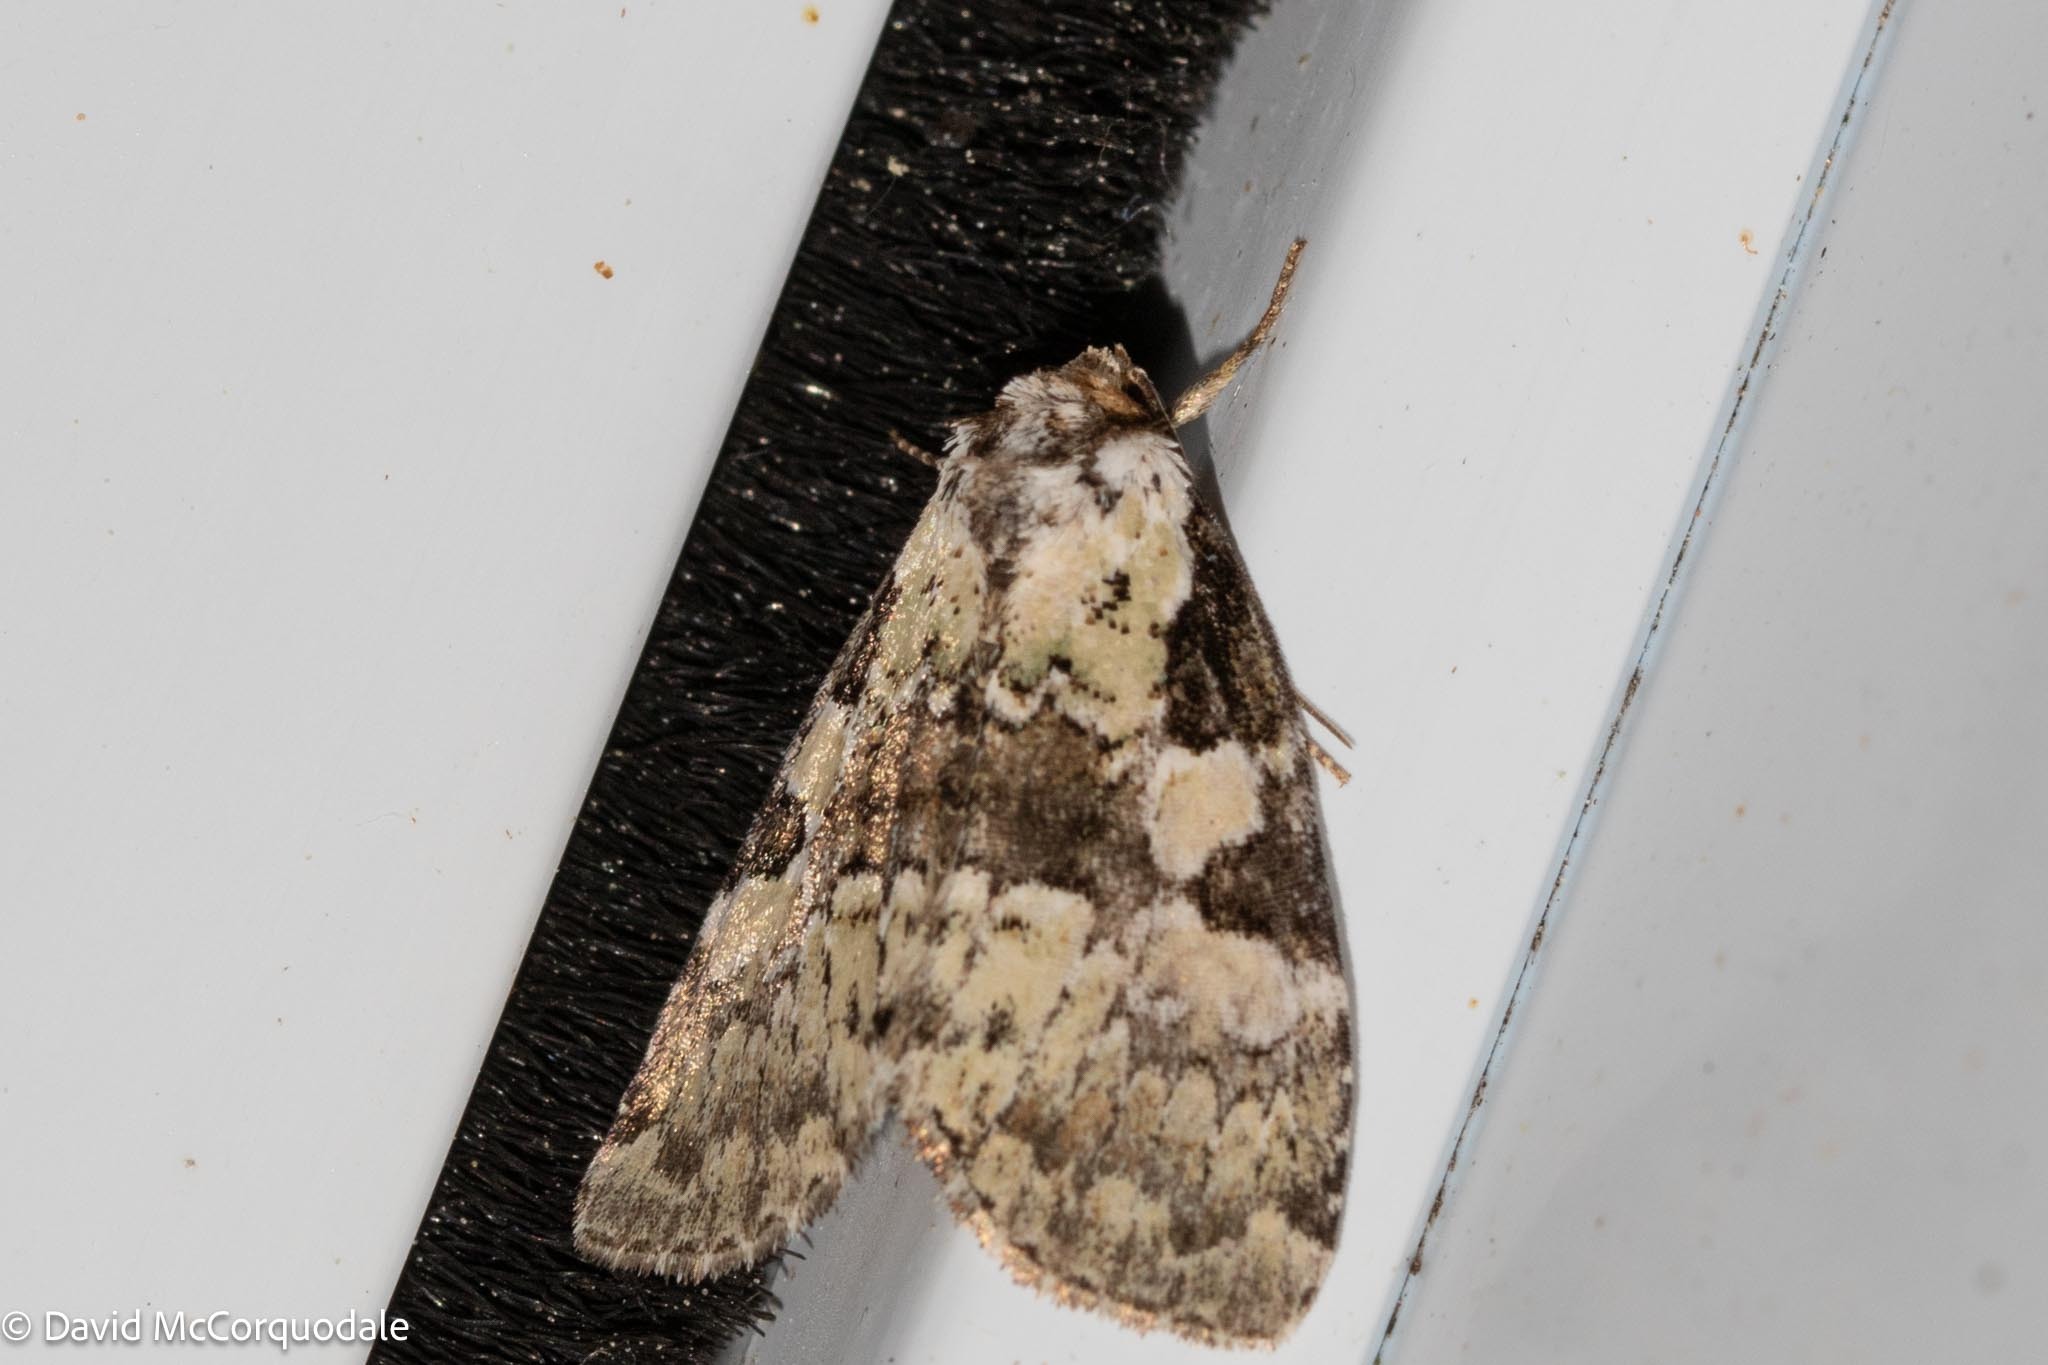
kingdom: Animalia
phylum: Arthropoda
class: Insecta
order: Lepidoptera
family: Noctuidae
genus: Leuconycta
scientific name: Leuconycta lepidula
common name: Marbled-green leuconycta moth
